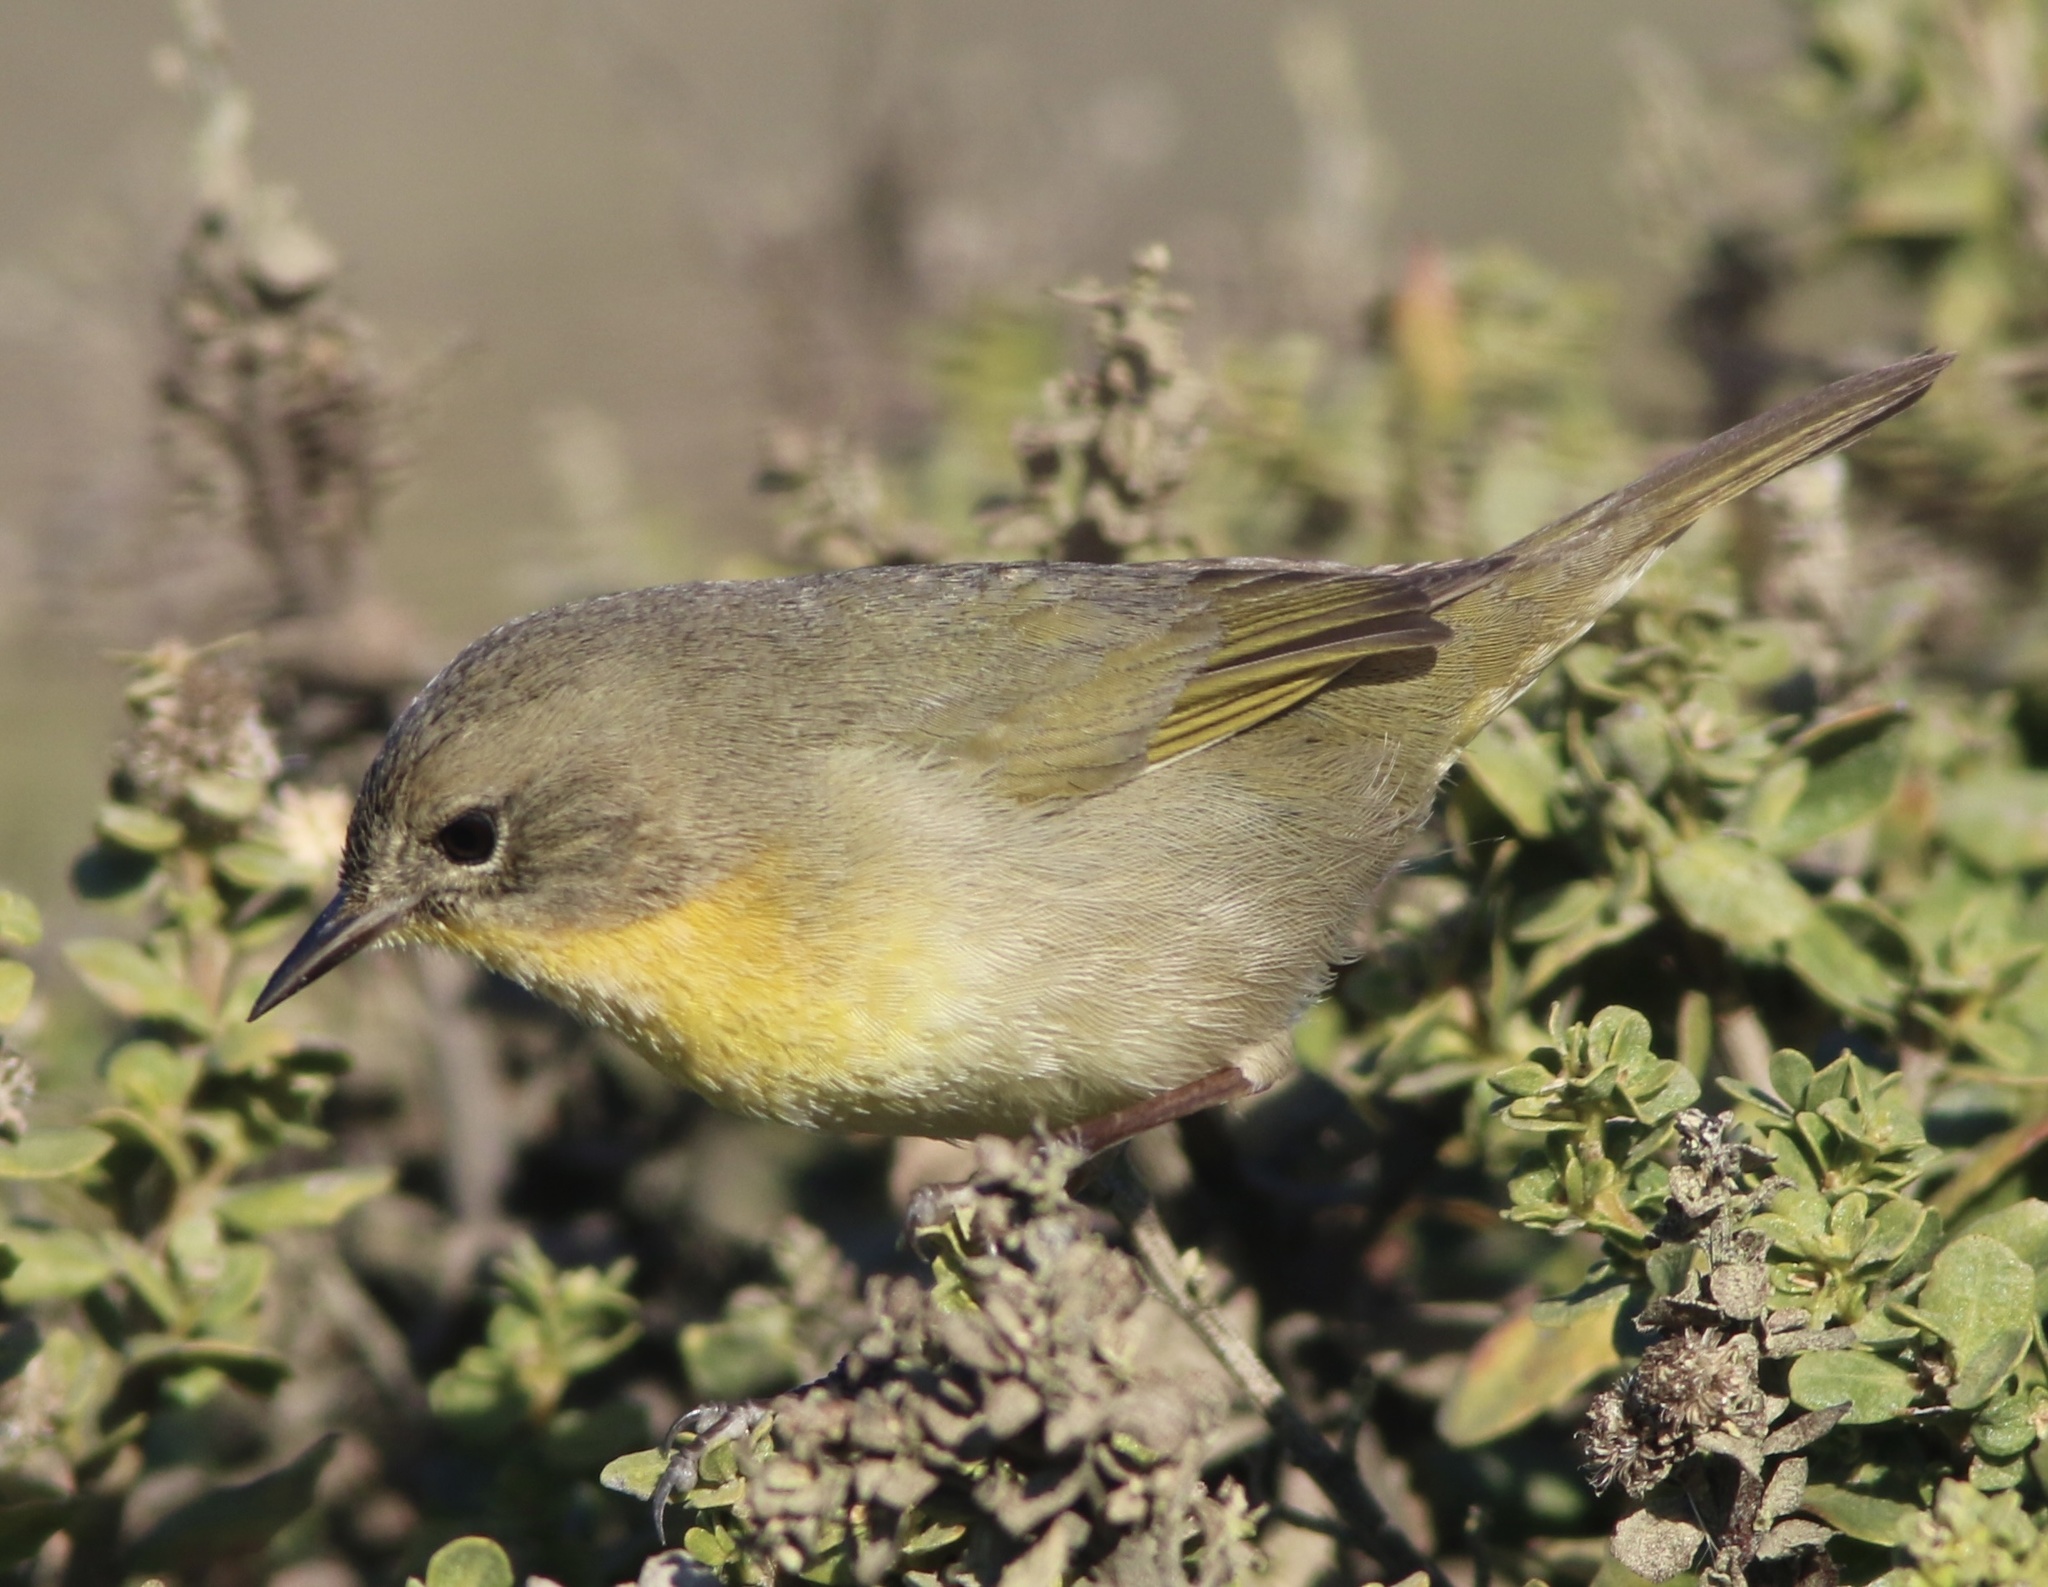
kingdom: Animalia
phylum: Chordata
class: Aves
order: Passeriformes
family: Parulidae
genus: Geothlypis
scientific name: Geothlypis trichas
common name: Common yellowthroat
